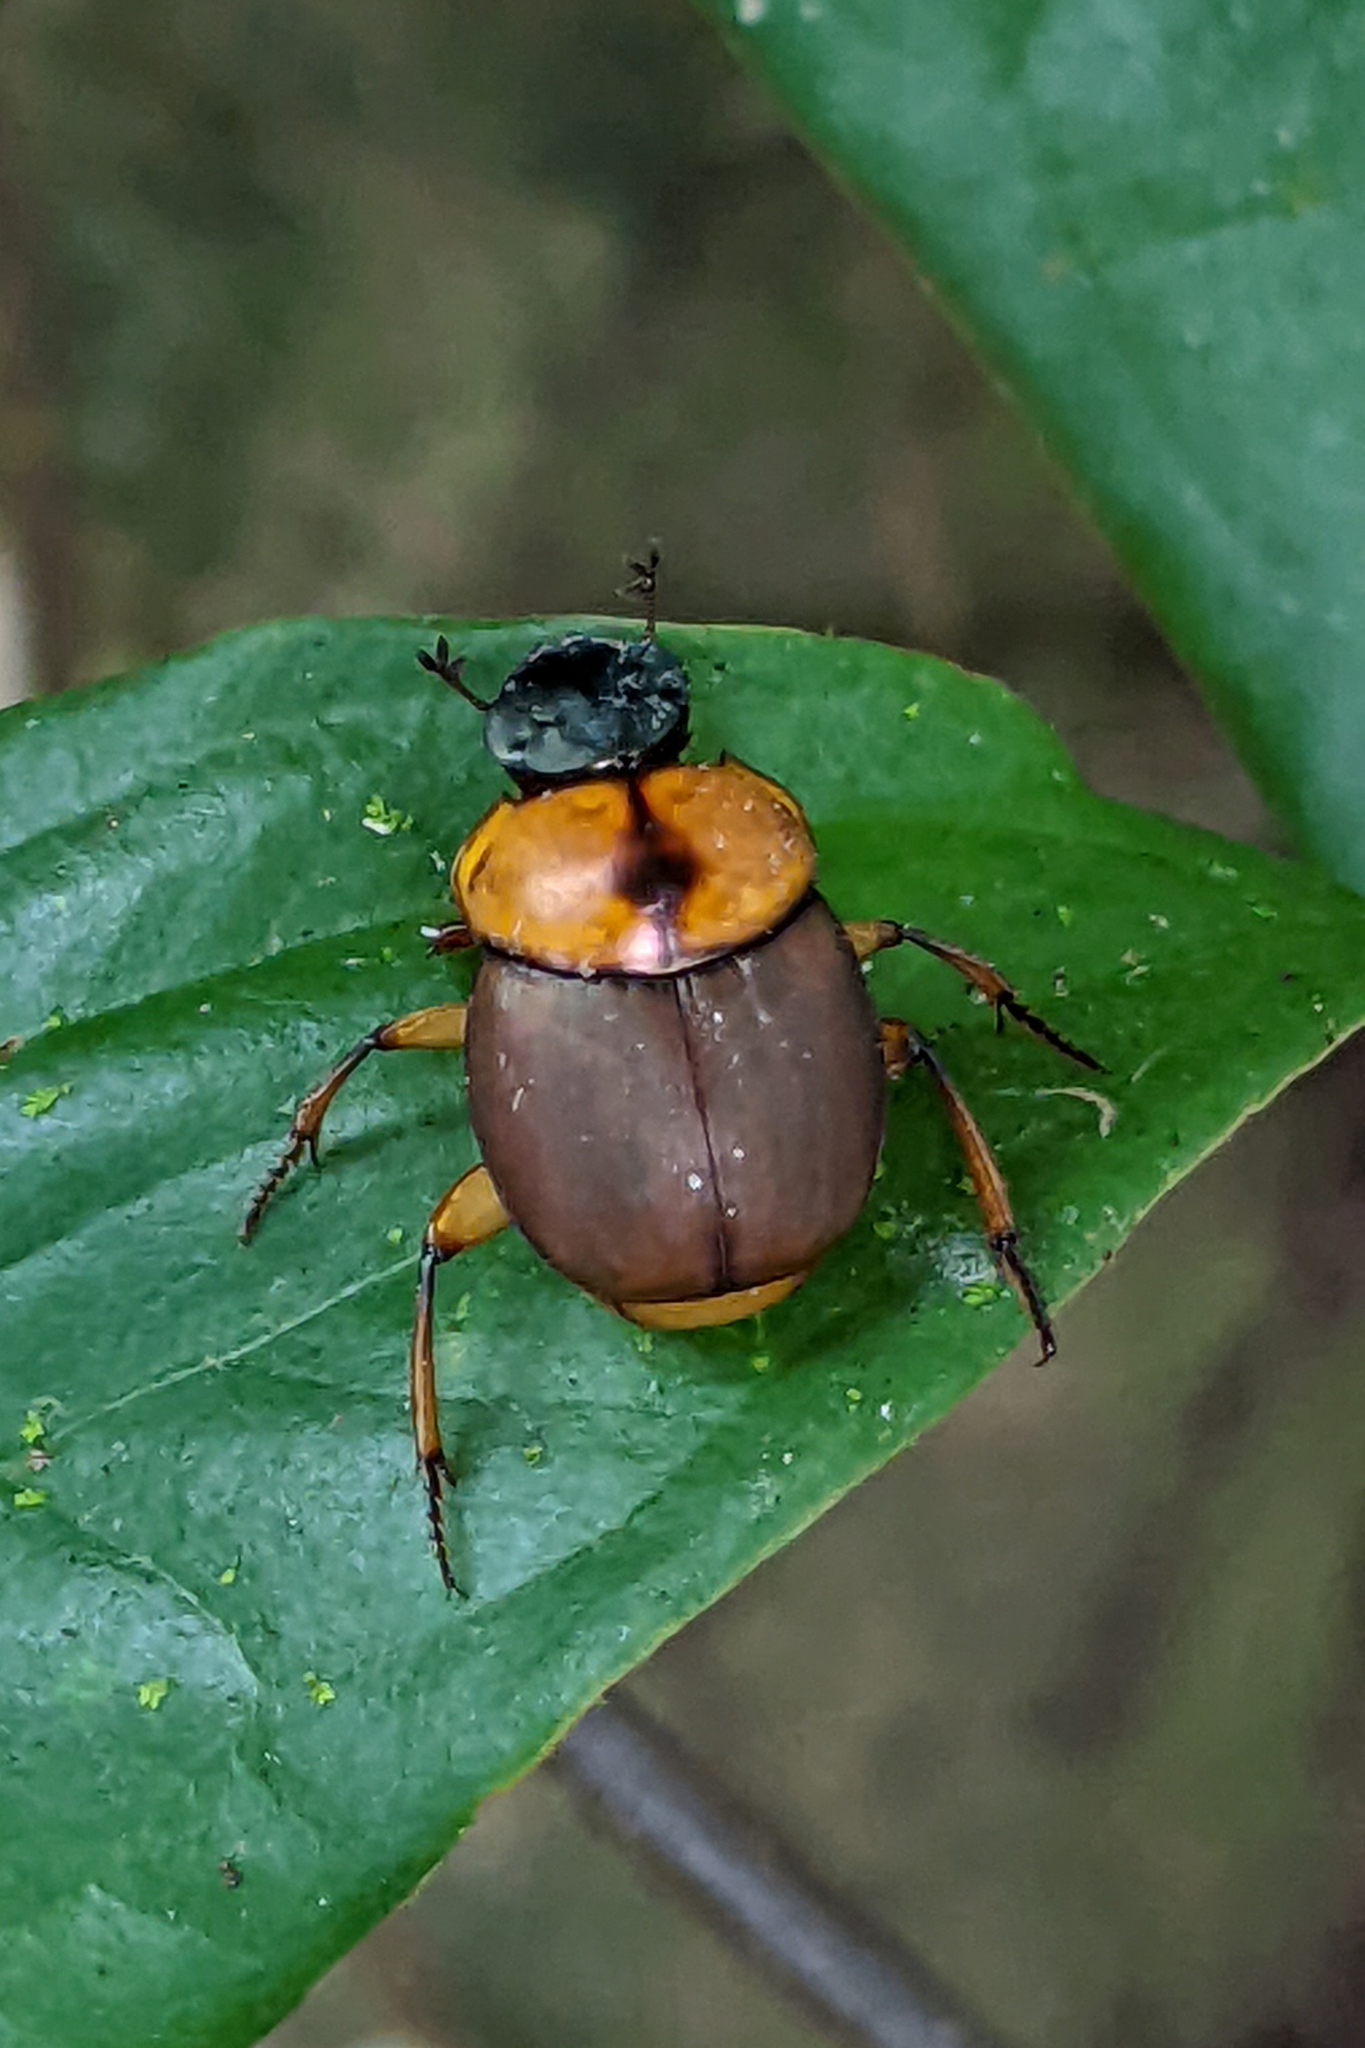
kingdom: Animalia
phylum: Arthropoda
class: Insecta
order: Coleoptera
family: Scarabaeidae
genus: Canthon
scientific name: Canthon triangularis
